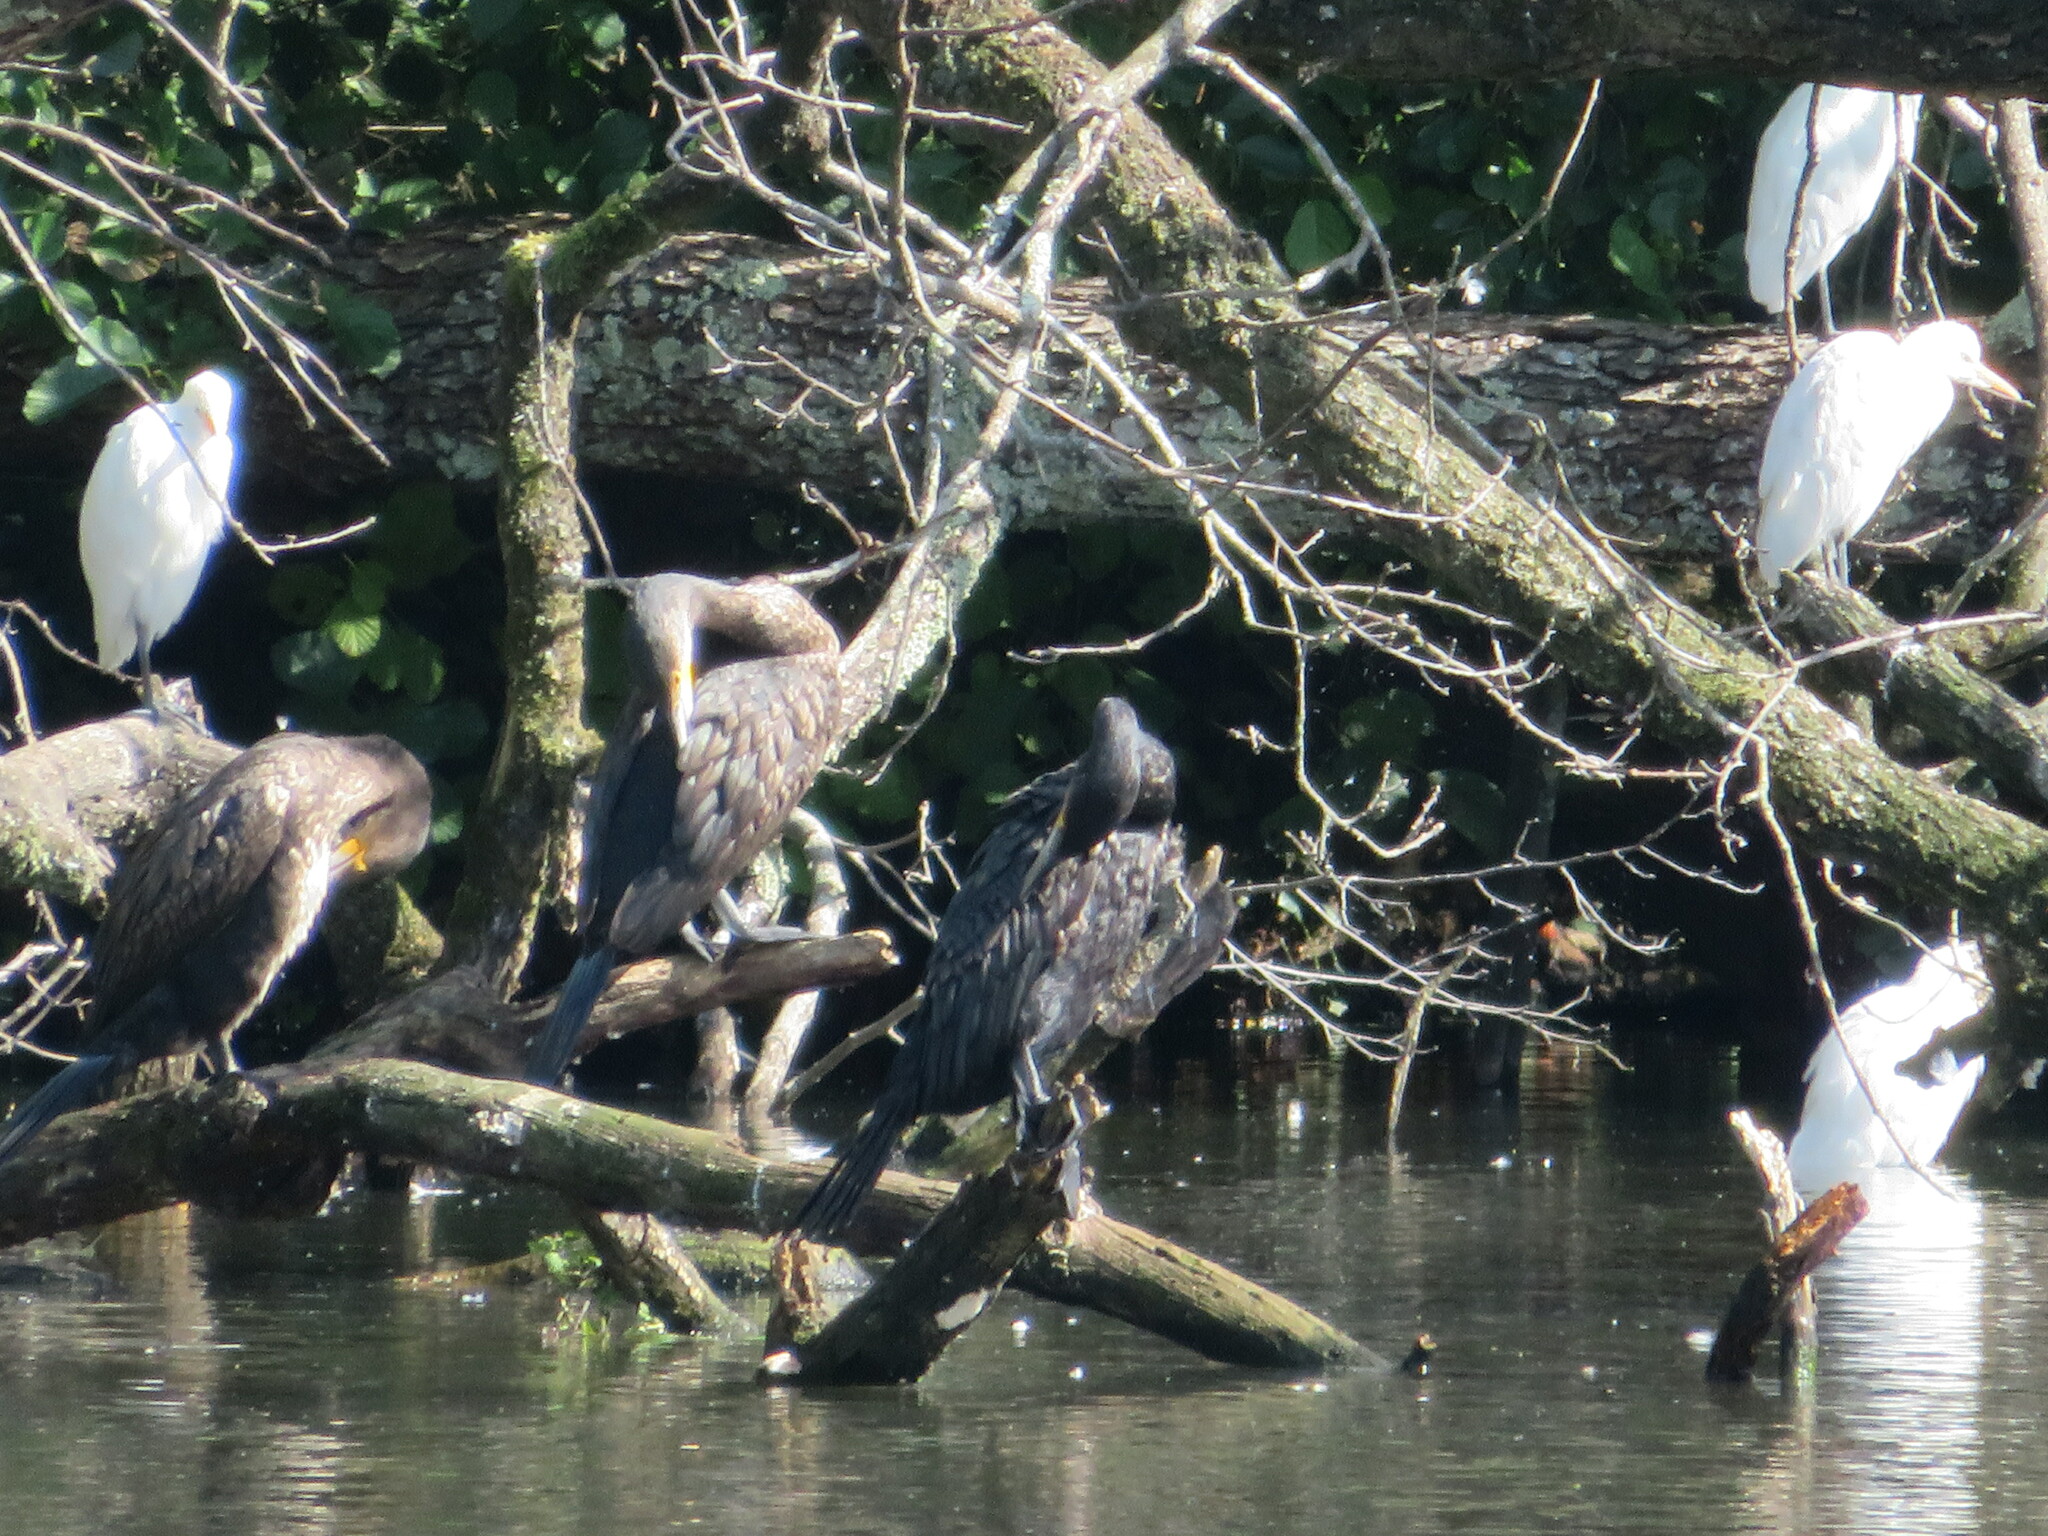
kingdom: Animalia
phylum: Chordata
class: Aves
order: Suliformes
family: Phalacrocoracidae
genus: Phalacrocorax
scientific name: Phalacrocorax carbo
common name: Great cormorant
